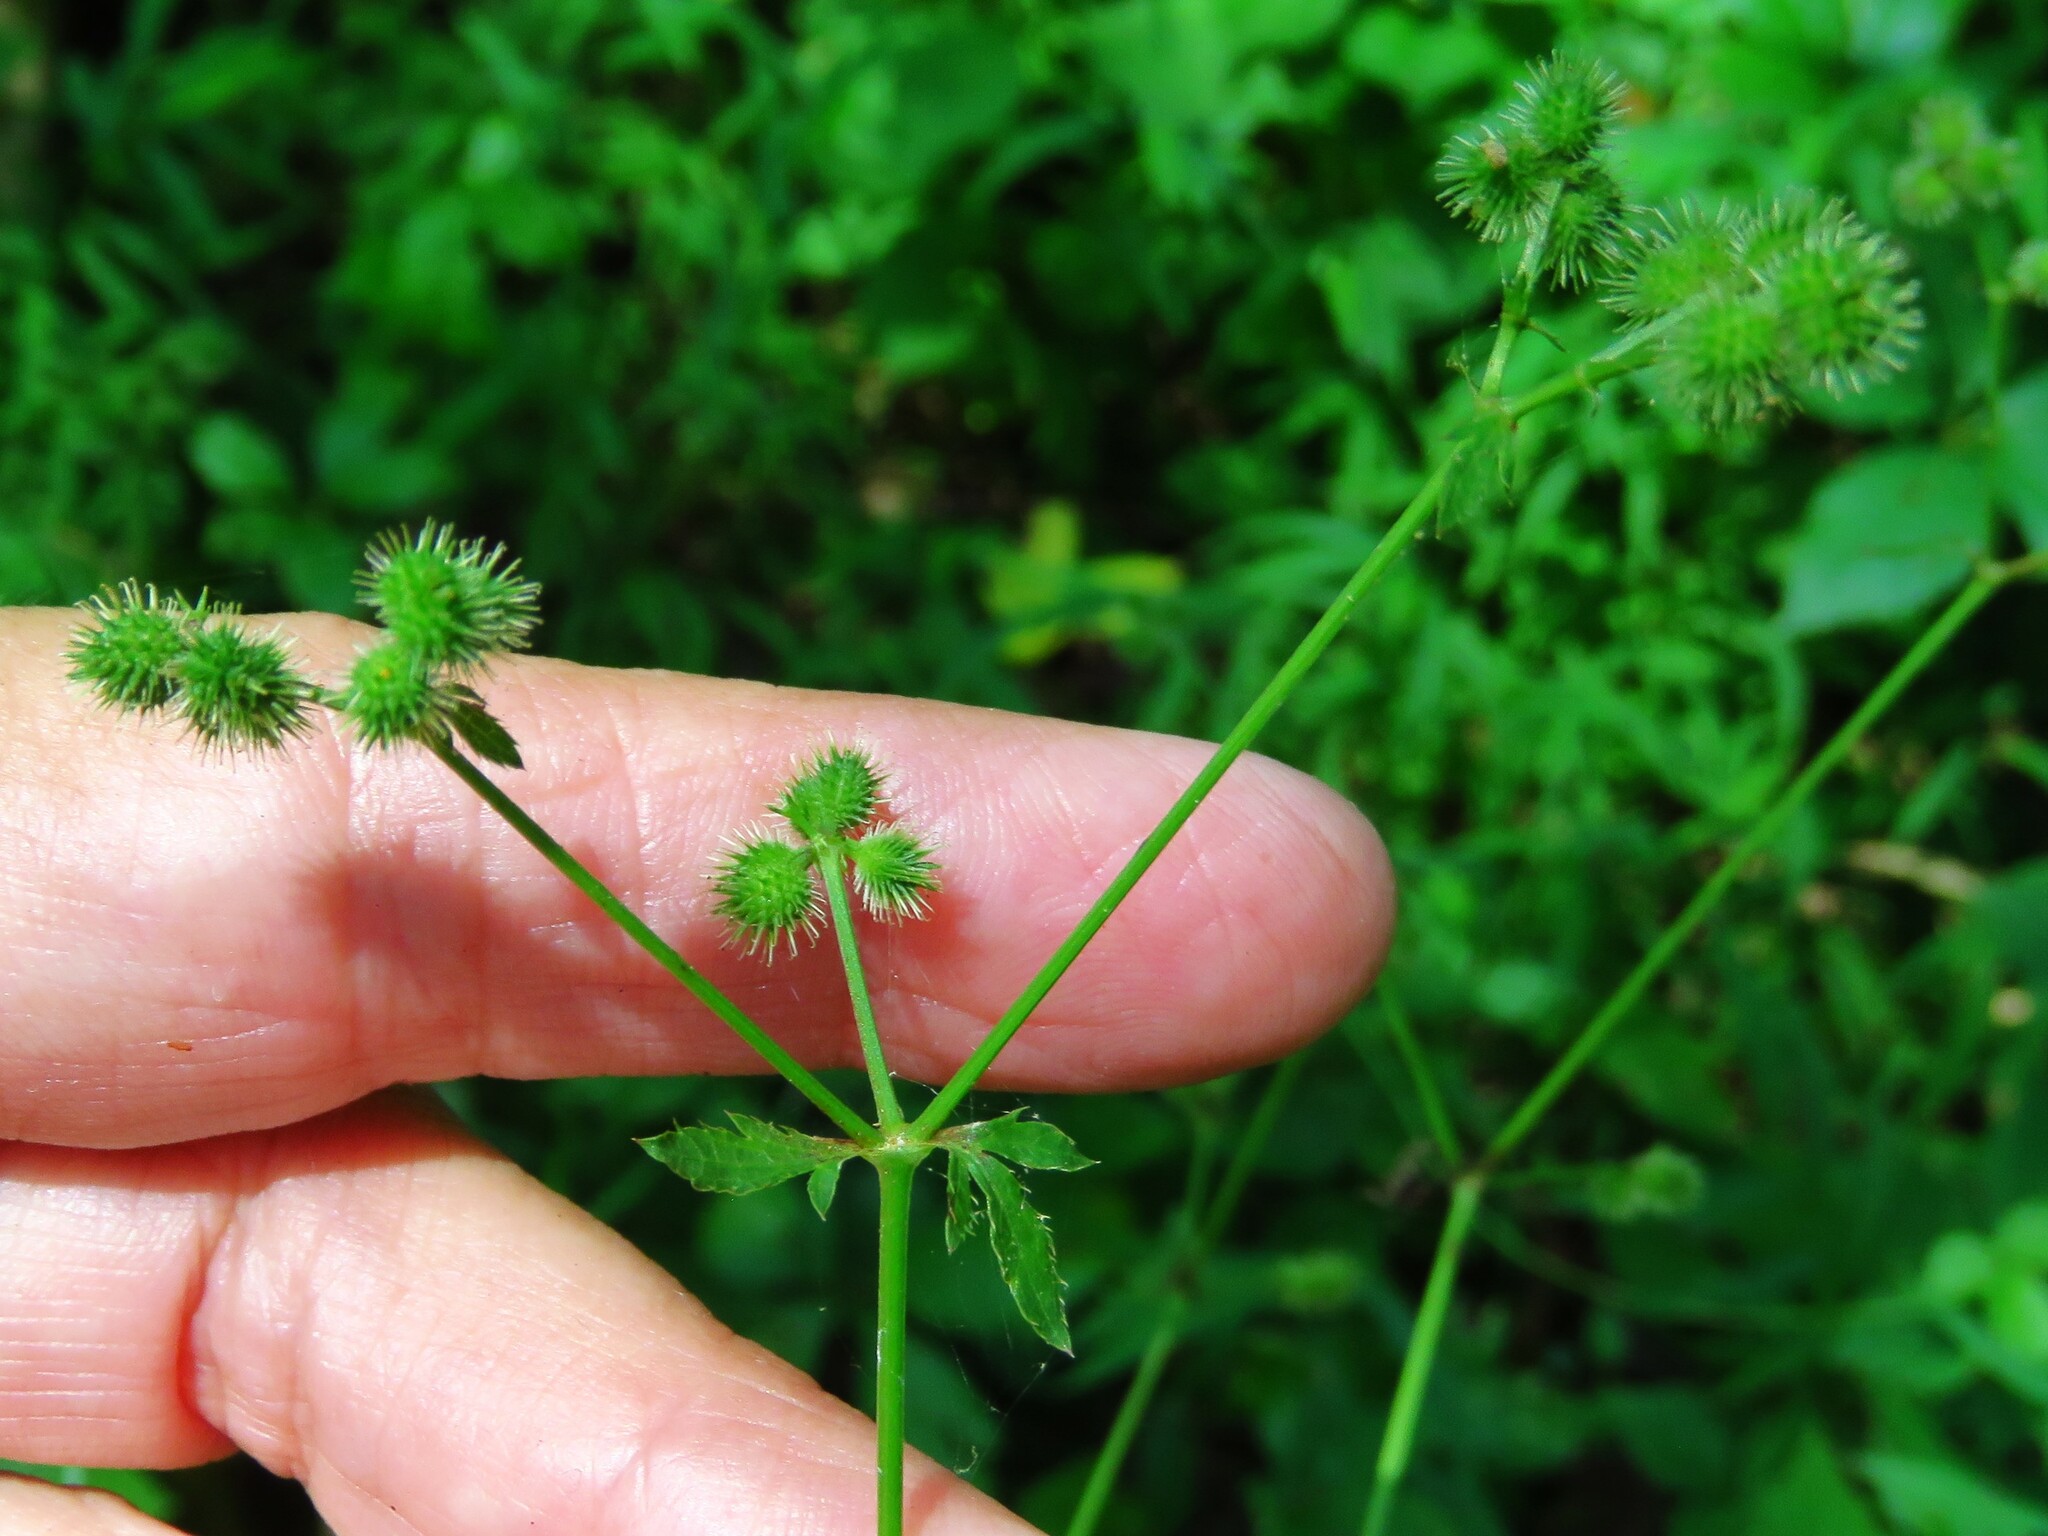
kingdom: Plantae
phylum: Tracheophyta
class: Magnoliopsida
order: Apiales
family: Apiaceae
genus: Sanicula
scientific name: Sanicula canadensis
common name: Canada sanicle
